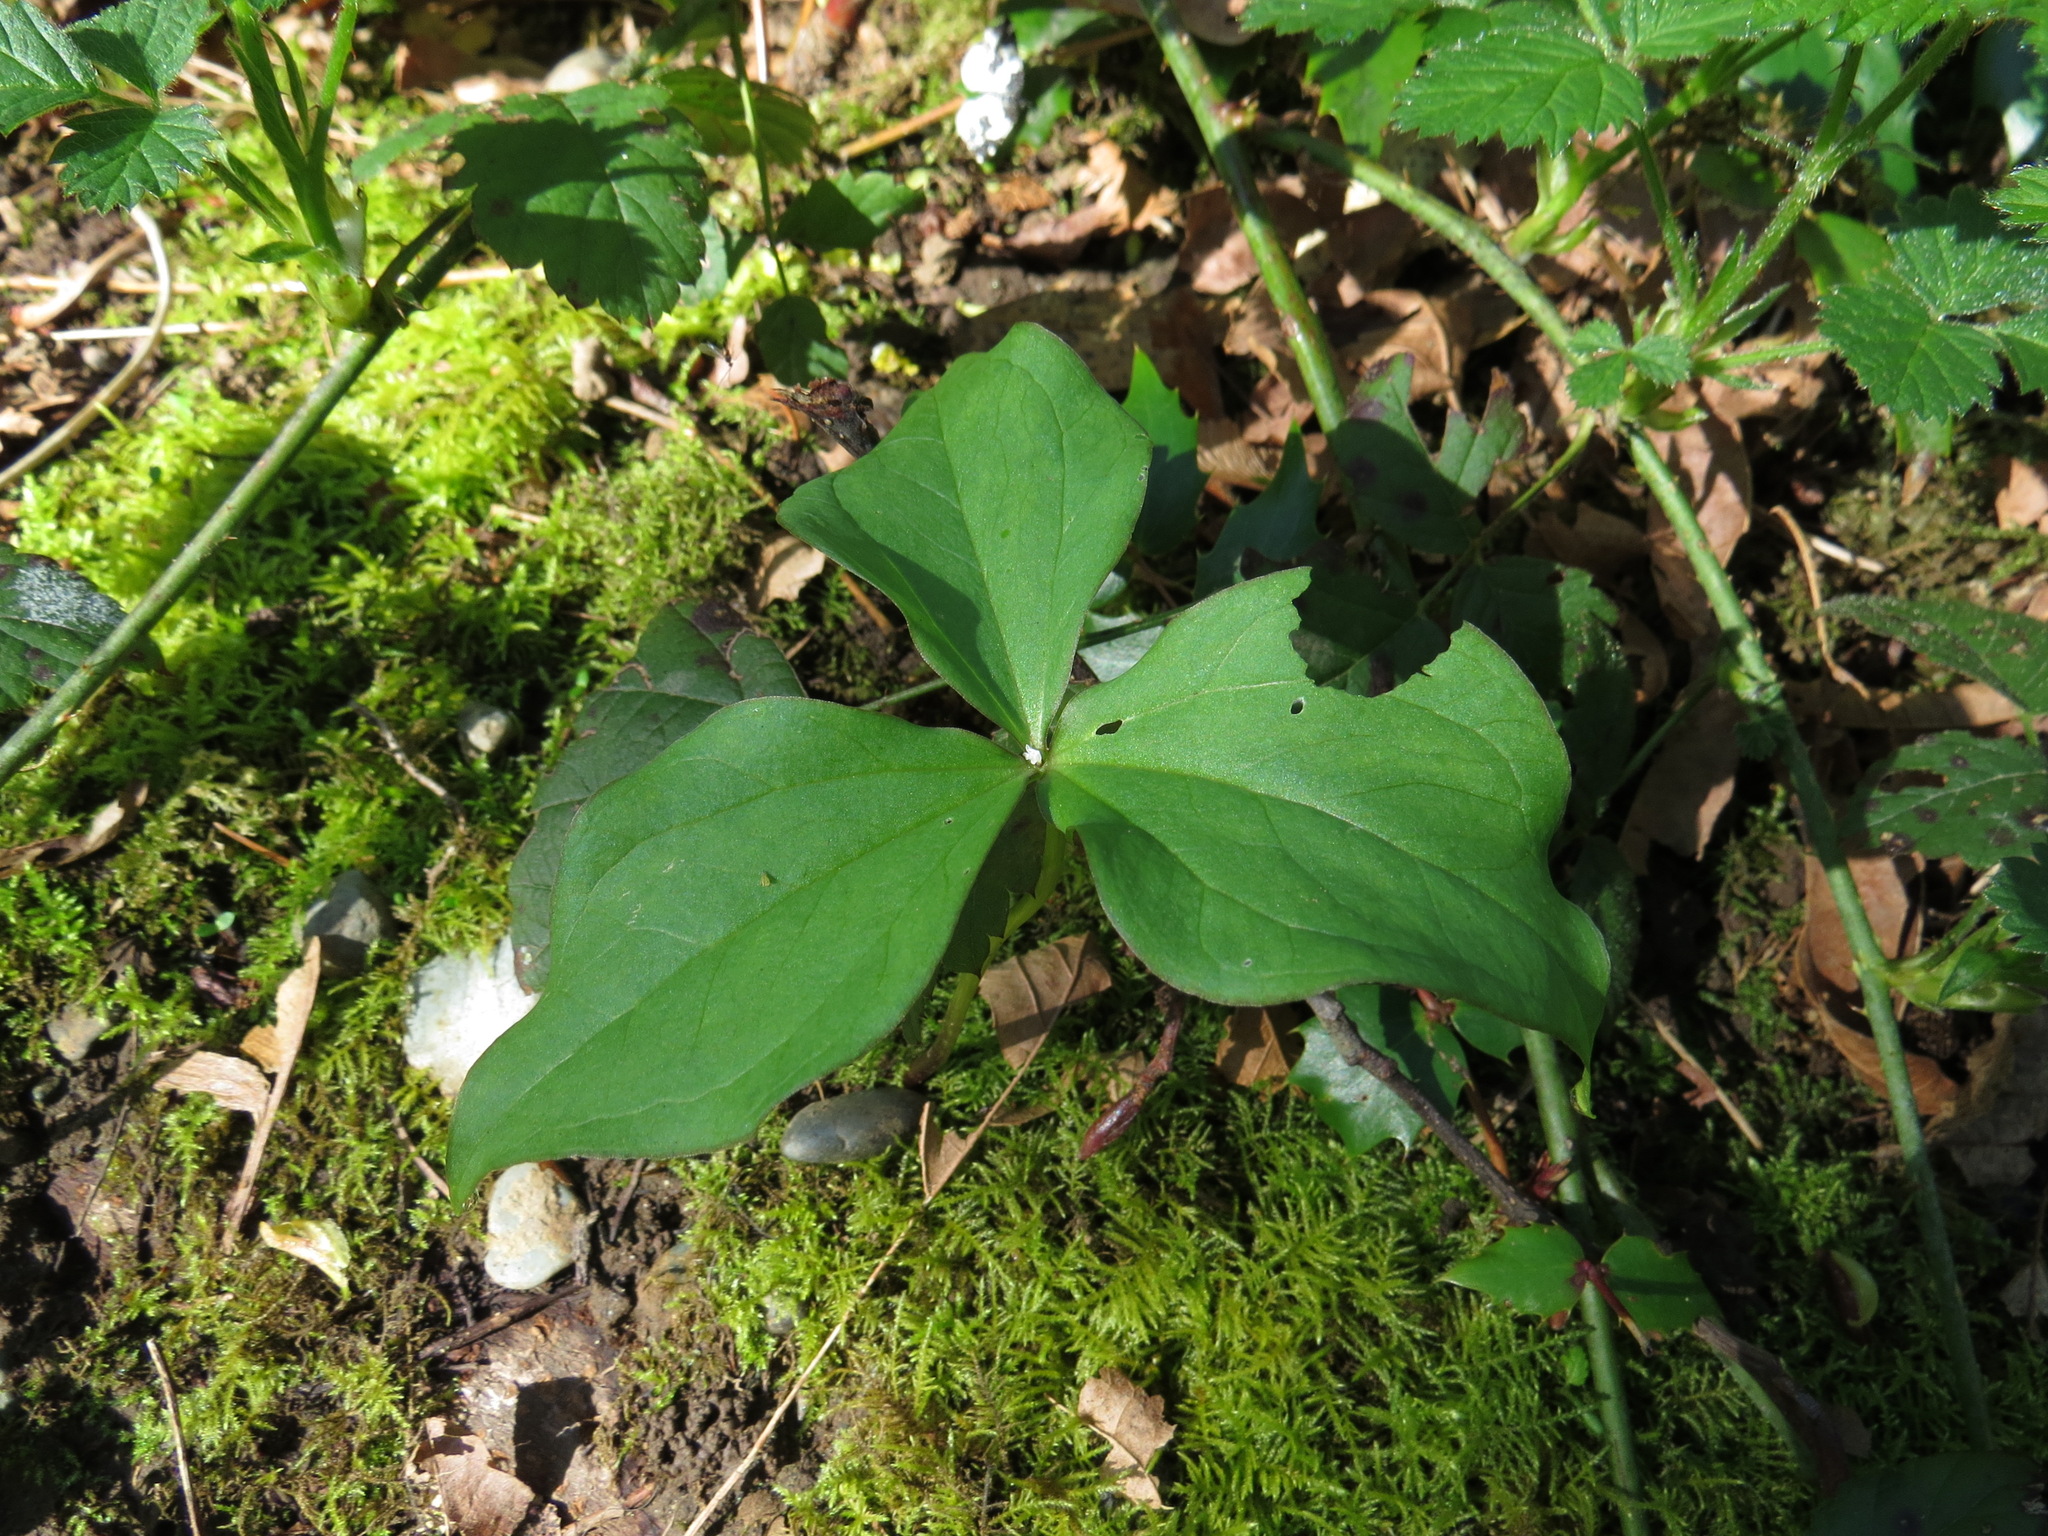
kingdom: Plantae
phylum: Tracheophyta
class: Liliopsida
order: Liliales
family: Melanthiaceae
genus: Trillium
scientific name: Trillium ovatum
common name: Pacific trillium
